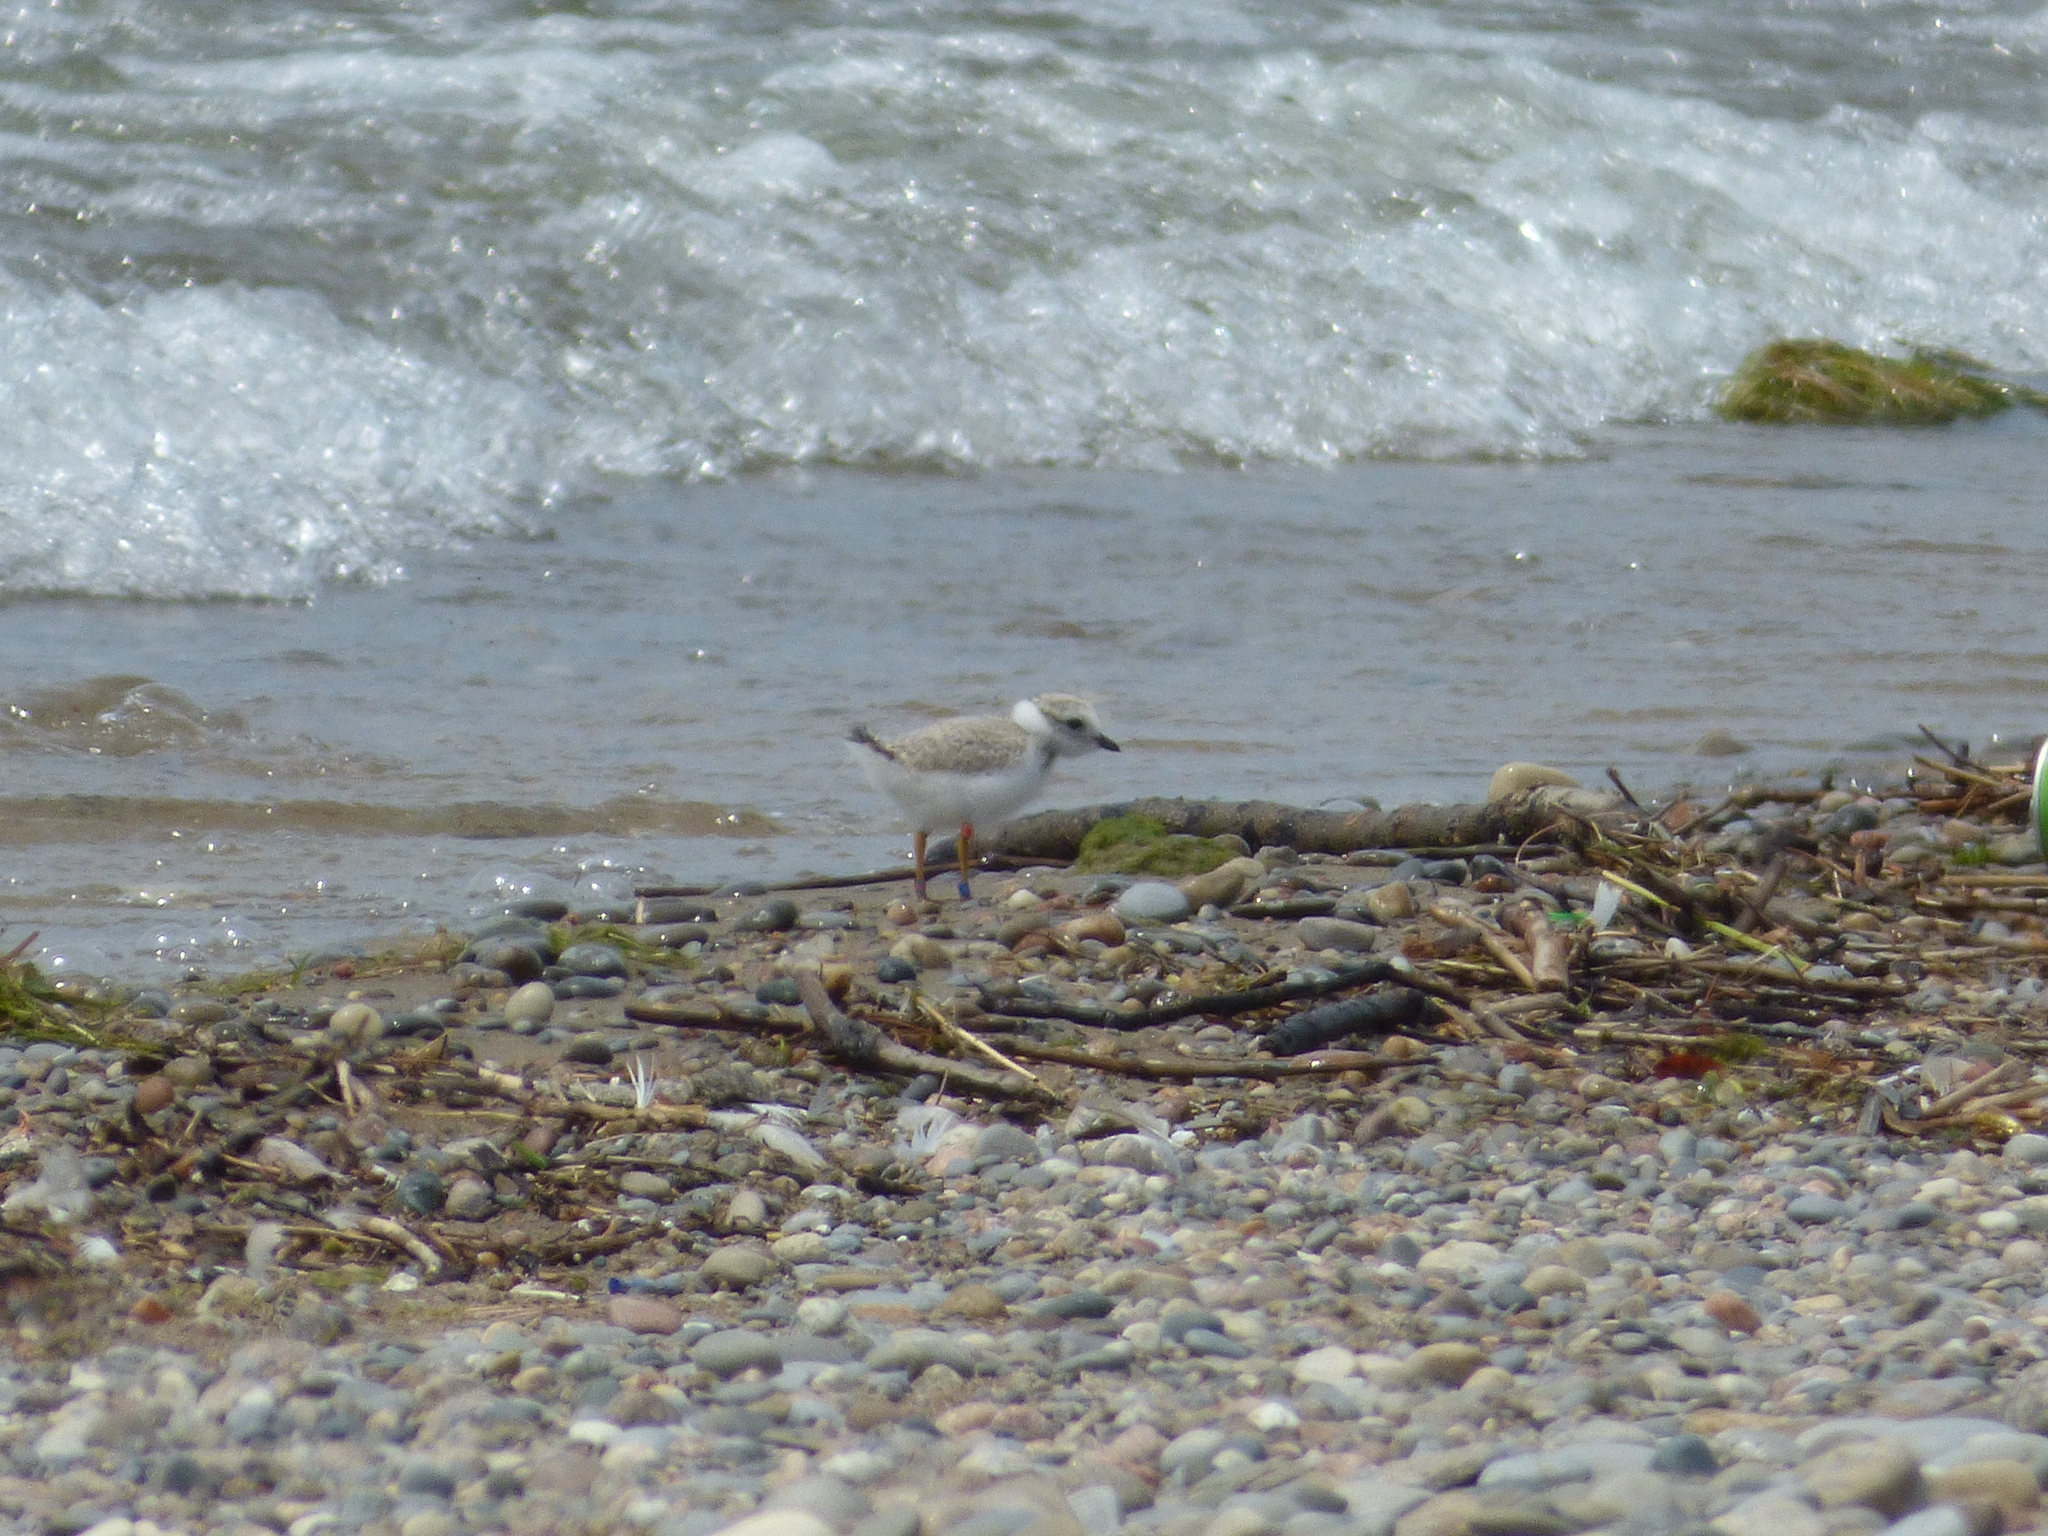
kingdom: Animalia
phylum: Chordata
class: Aves
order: Charadriiformes
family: Charadriidae
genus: Charadrius
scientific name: Charadrius melodus
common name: Piping plover
